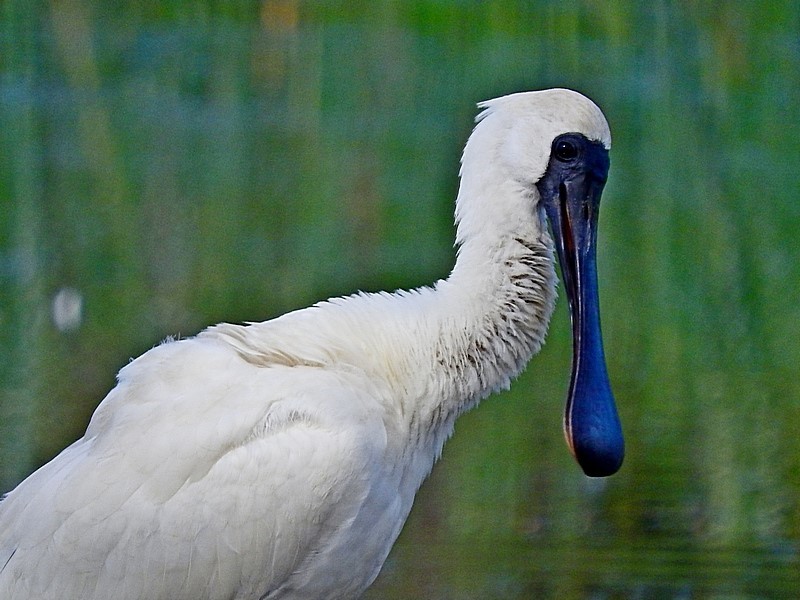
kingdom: Animalia
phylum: Chordata
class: Aves
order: Pelecaniformes
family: Threskiornithidae
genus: Platalea
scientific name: Platalea regia
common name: Royal spoonbill
